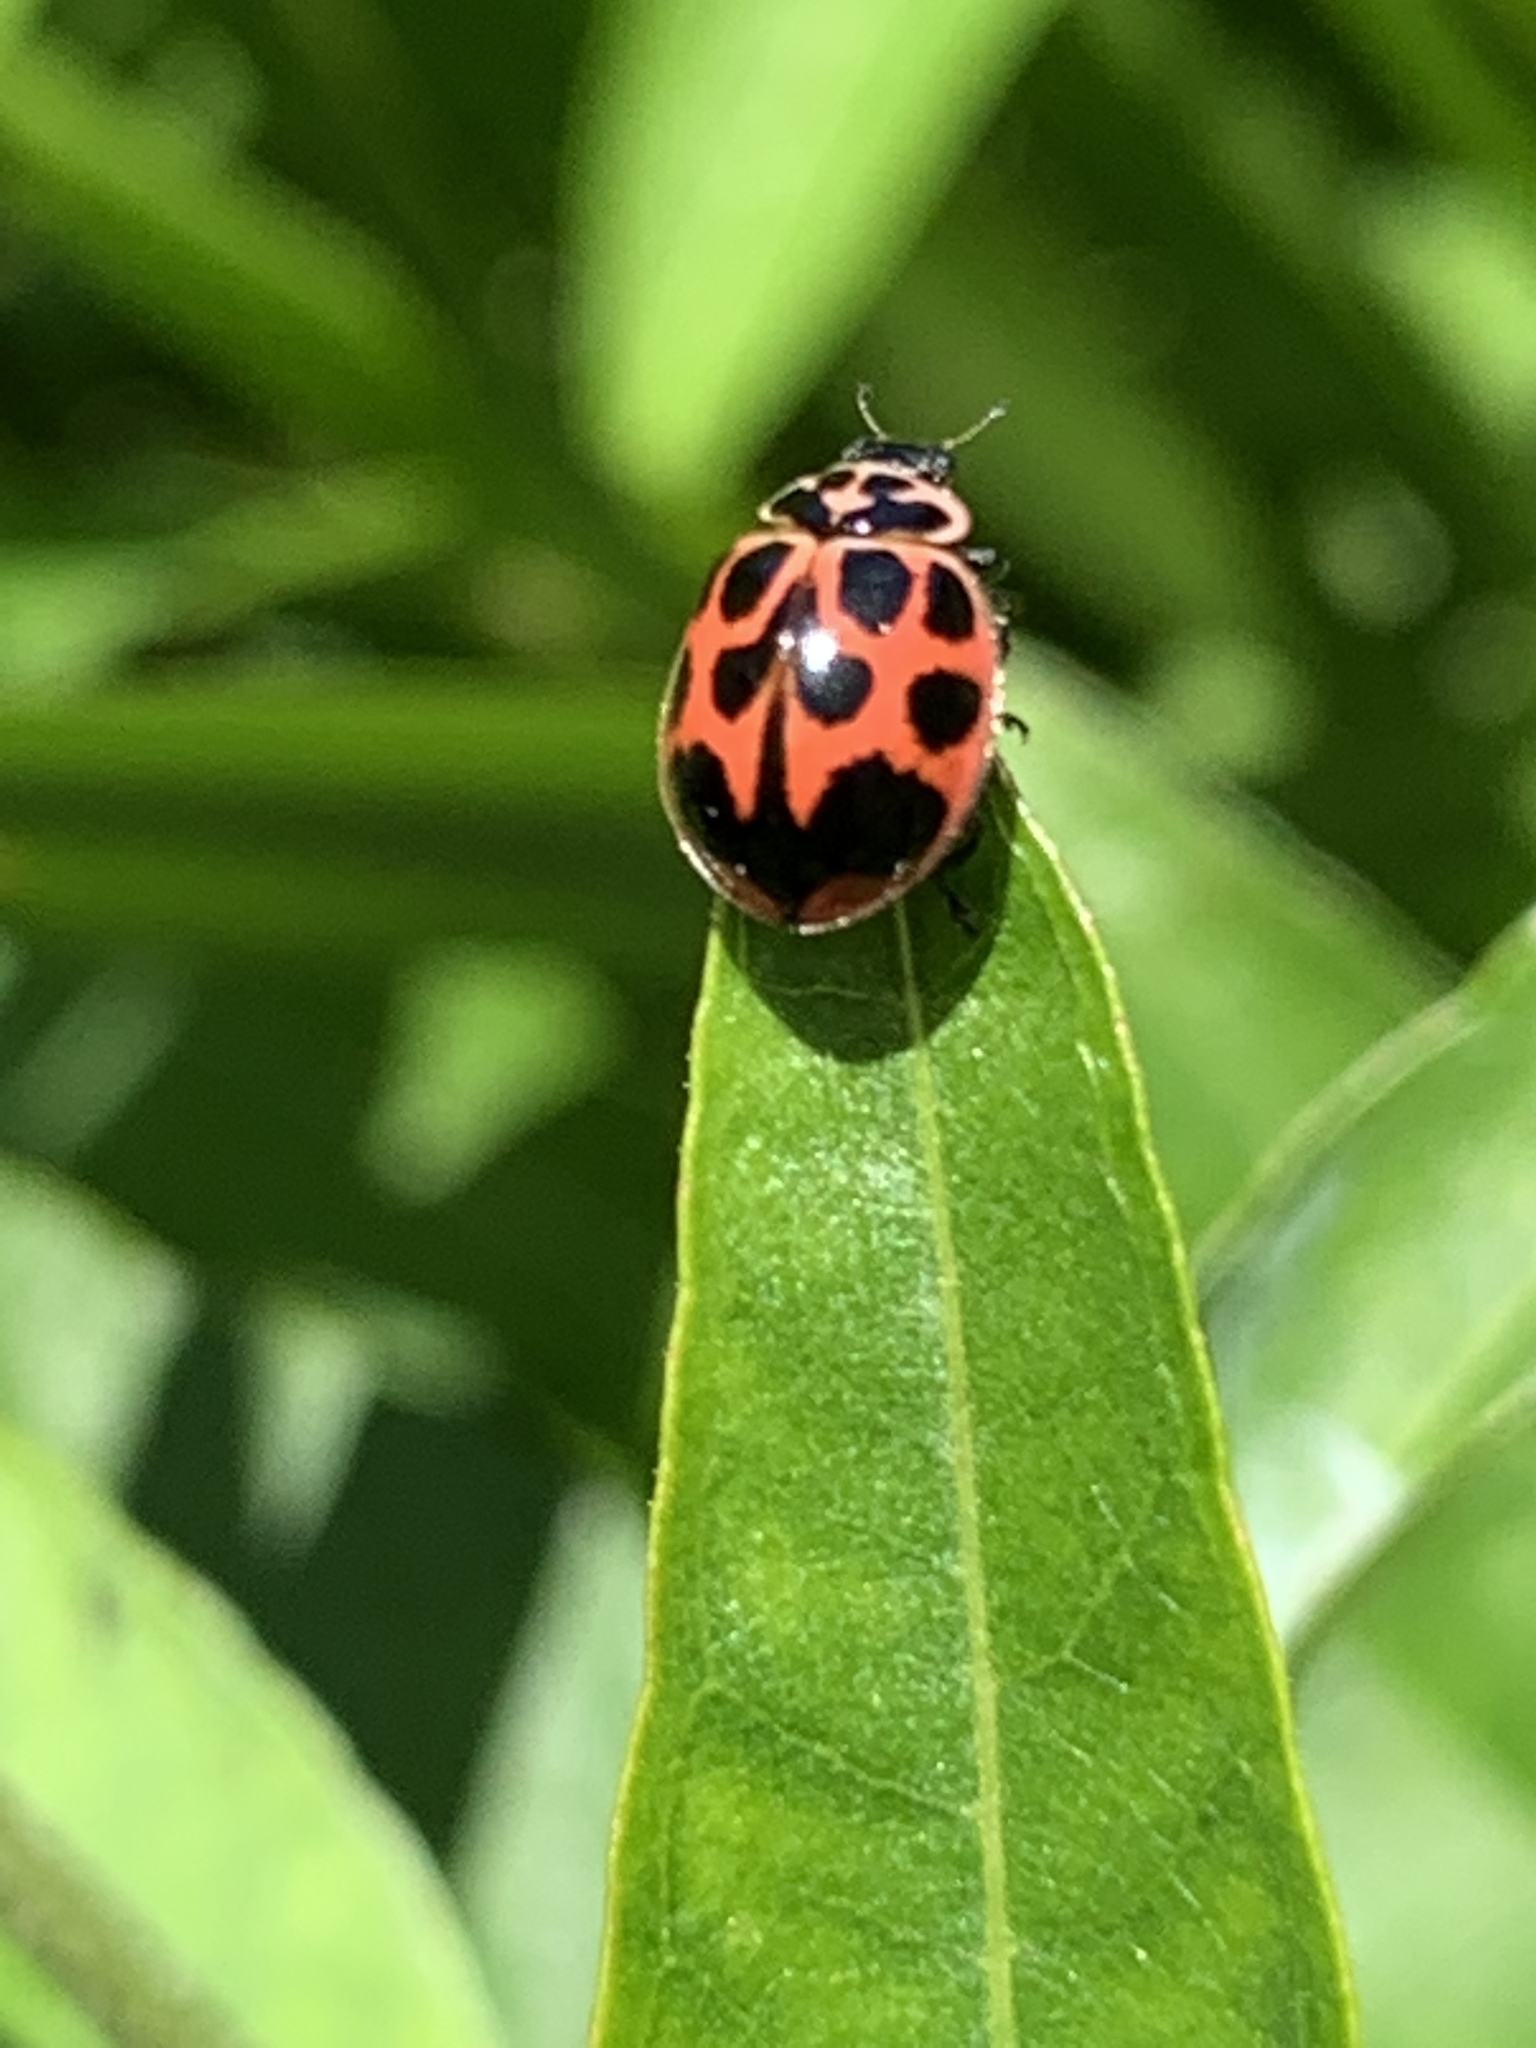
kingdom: Animalia
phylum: Arthropoda
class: Insecta
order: Coleoptera
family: Coccinellidae
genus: Neoharmonia
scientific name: Neoharmonia venusta
